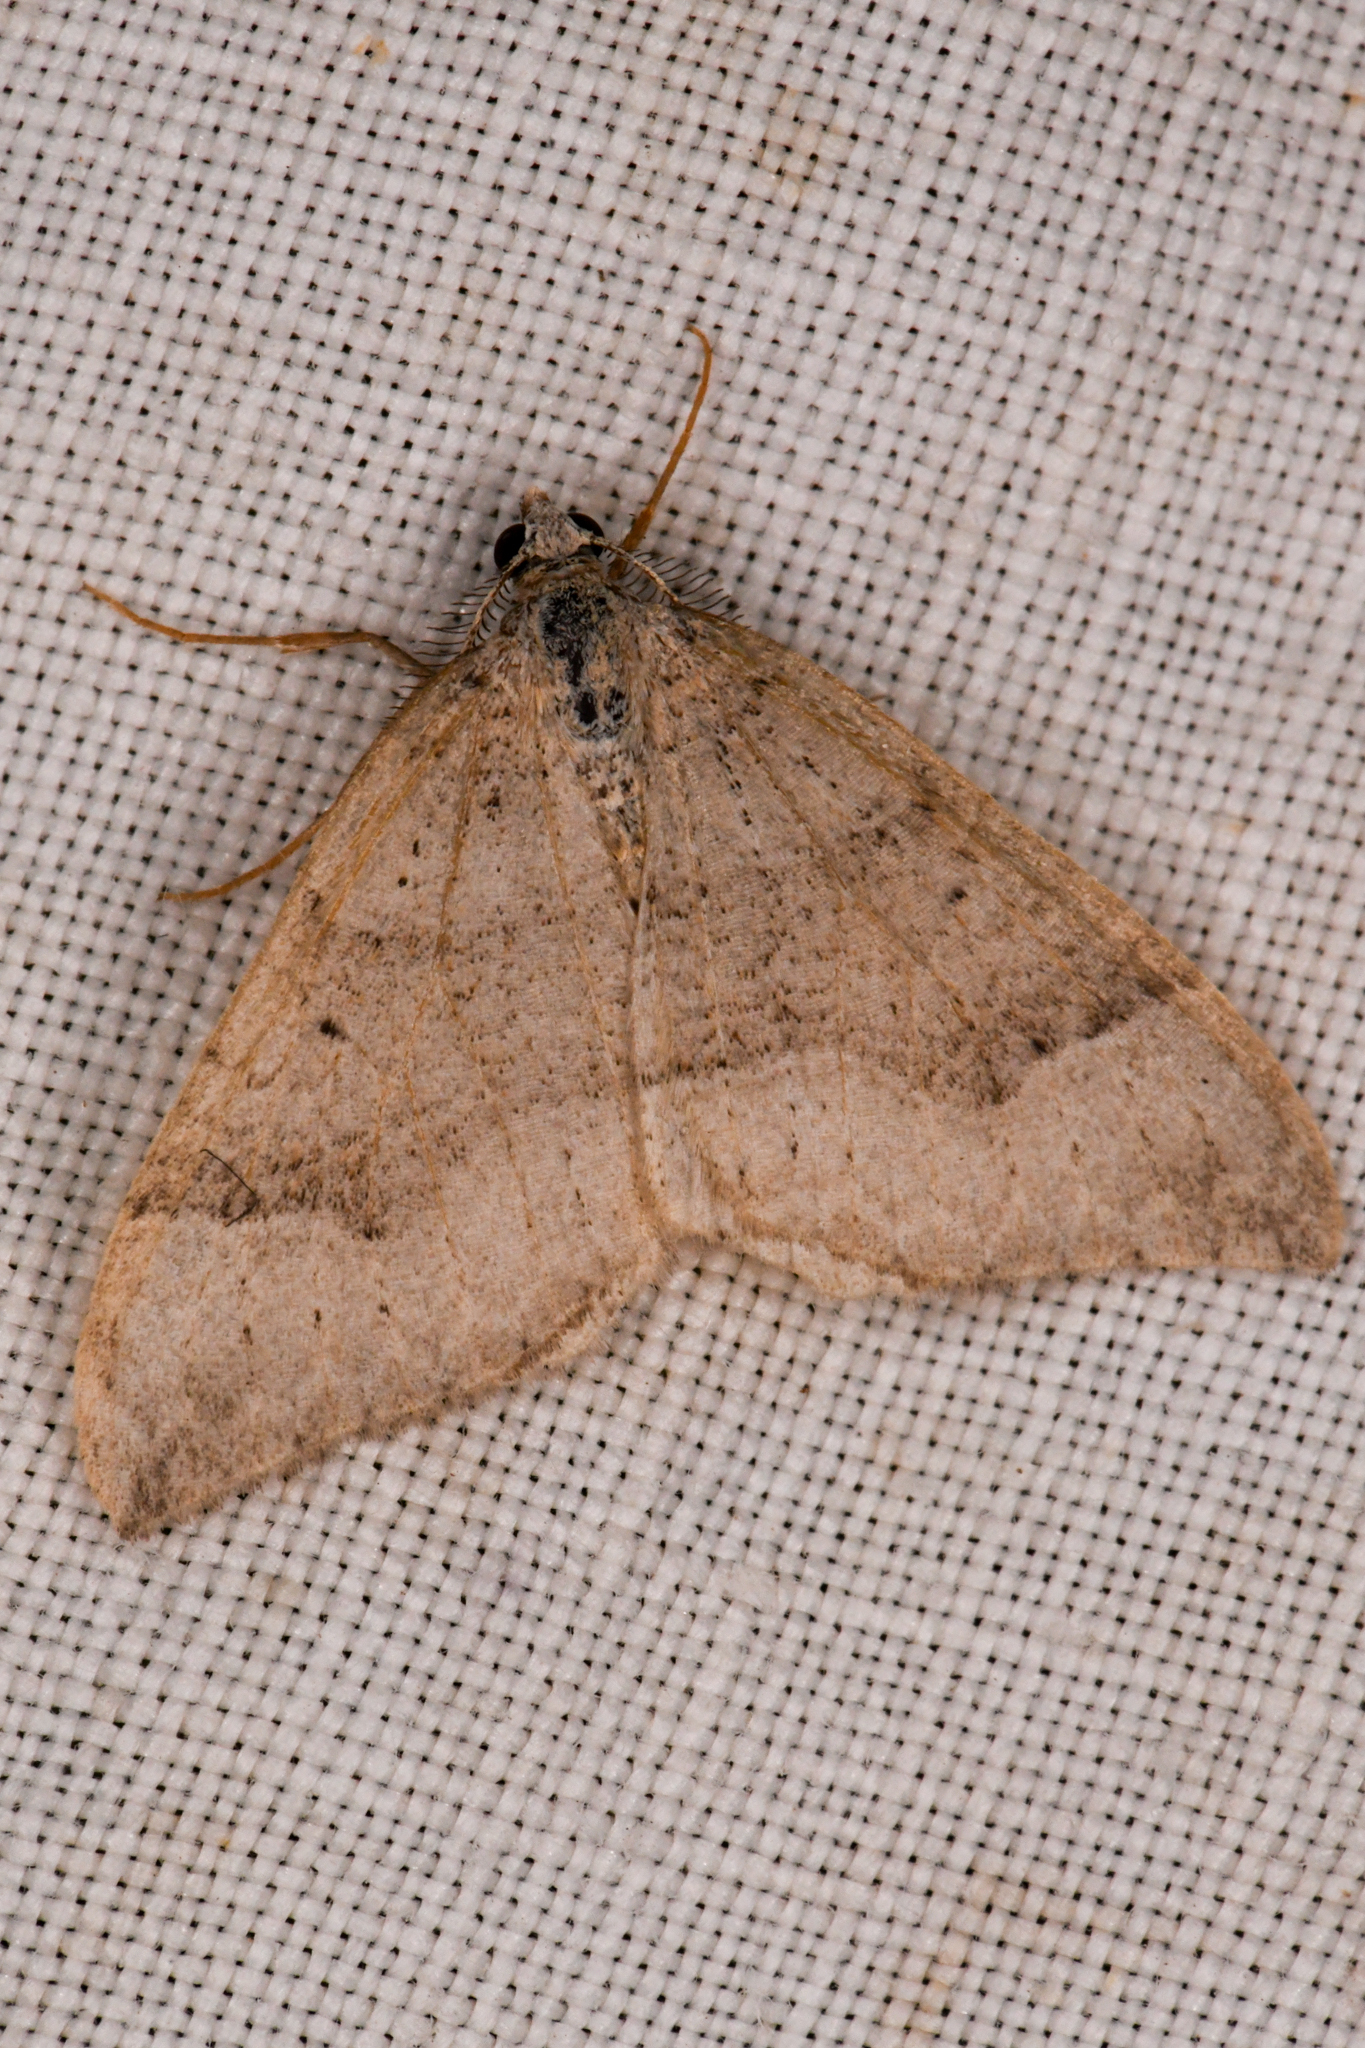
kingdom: Animalia
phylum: Arthropoda
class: Insecta
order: Lepidoptera
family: Geometridae
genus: Zenophleps
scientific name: Zenophleps lignicolorata
